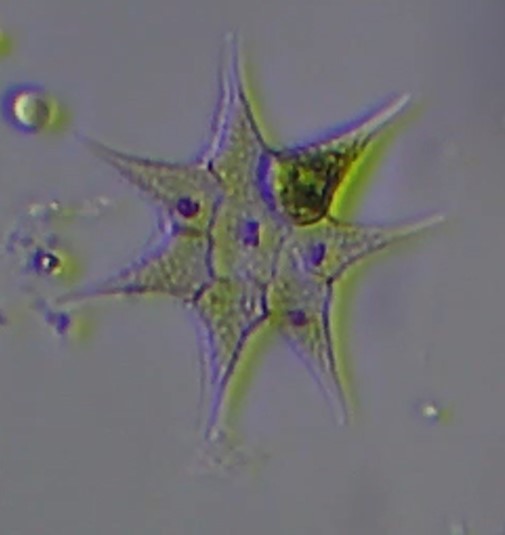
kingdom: Plantae
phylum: Chlorophyta
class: Chlorophyceae
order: Sphaeropleales
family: Hydrodictyaceae
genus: Monactinus
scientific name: Monactinus simplex
